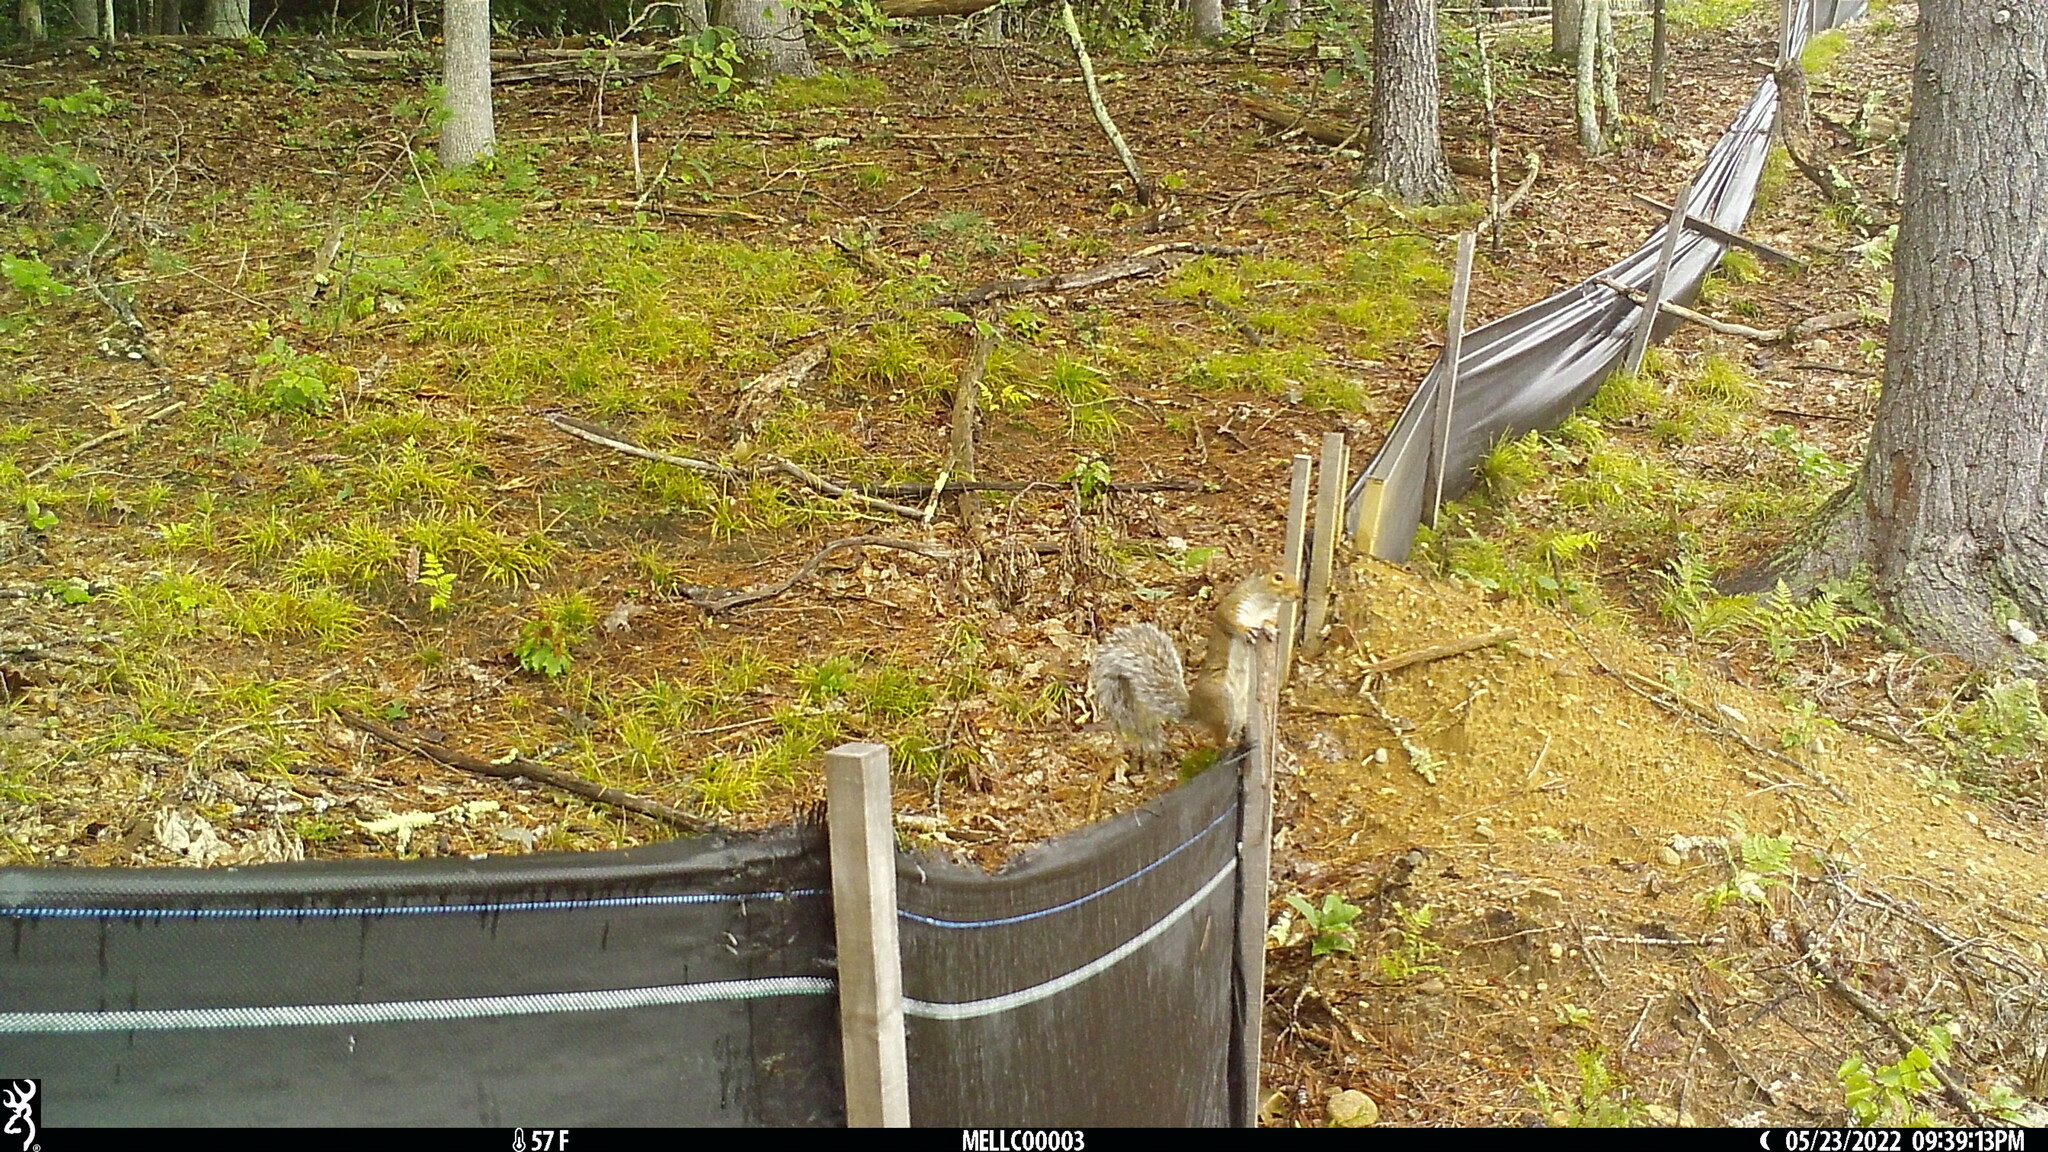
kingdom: Animalia
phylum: Chordata
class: Mammalia
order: Rodentia
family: Sciuridae
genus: Sciurus
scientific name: Sciurus carolinensis
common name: Eastern gray squirrel
